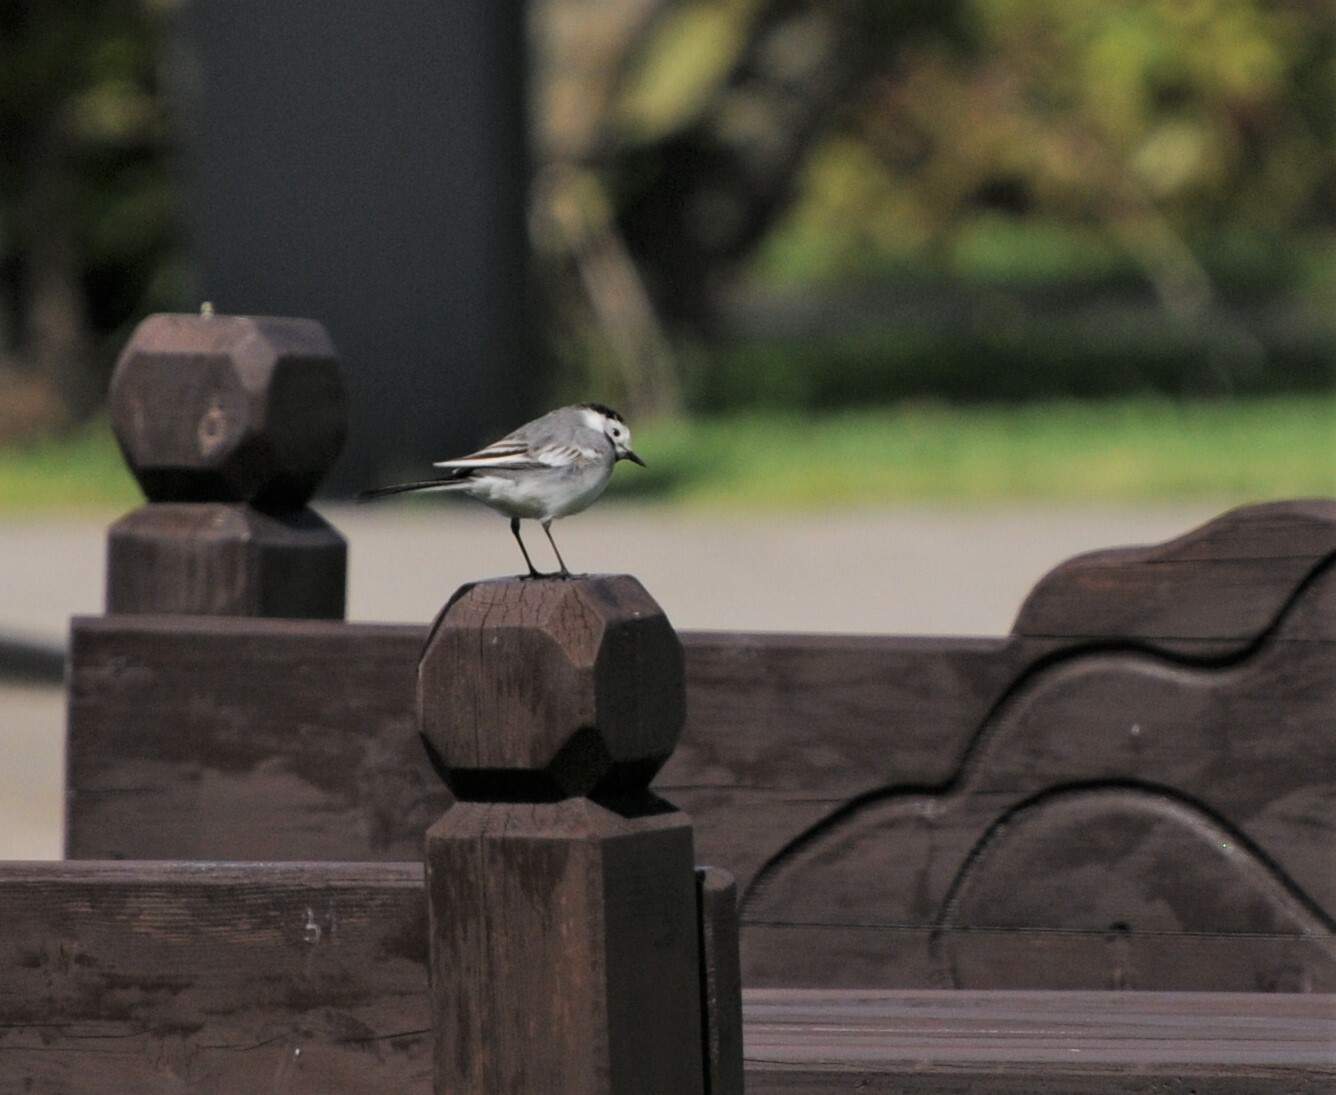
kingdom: Animalia
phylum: Chordata
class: Aves
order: Passeriformes
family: Motacillidae
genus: Motacilla
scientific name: Motacilla alba
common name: White wagtail
